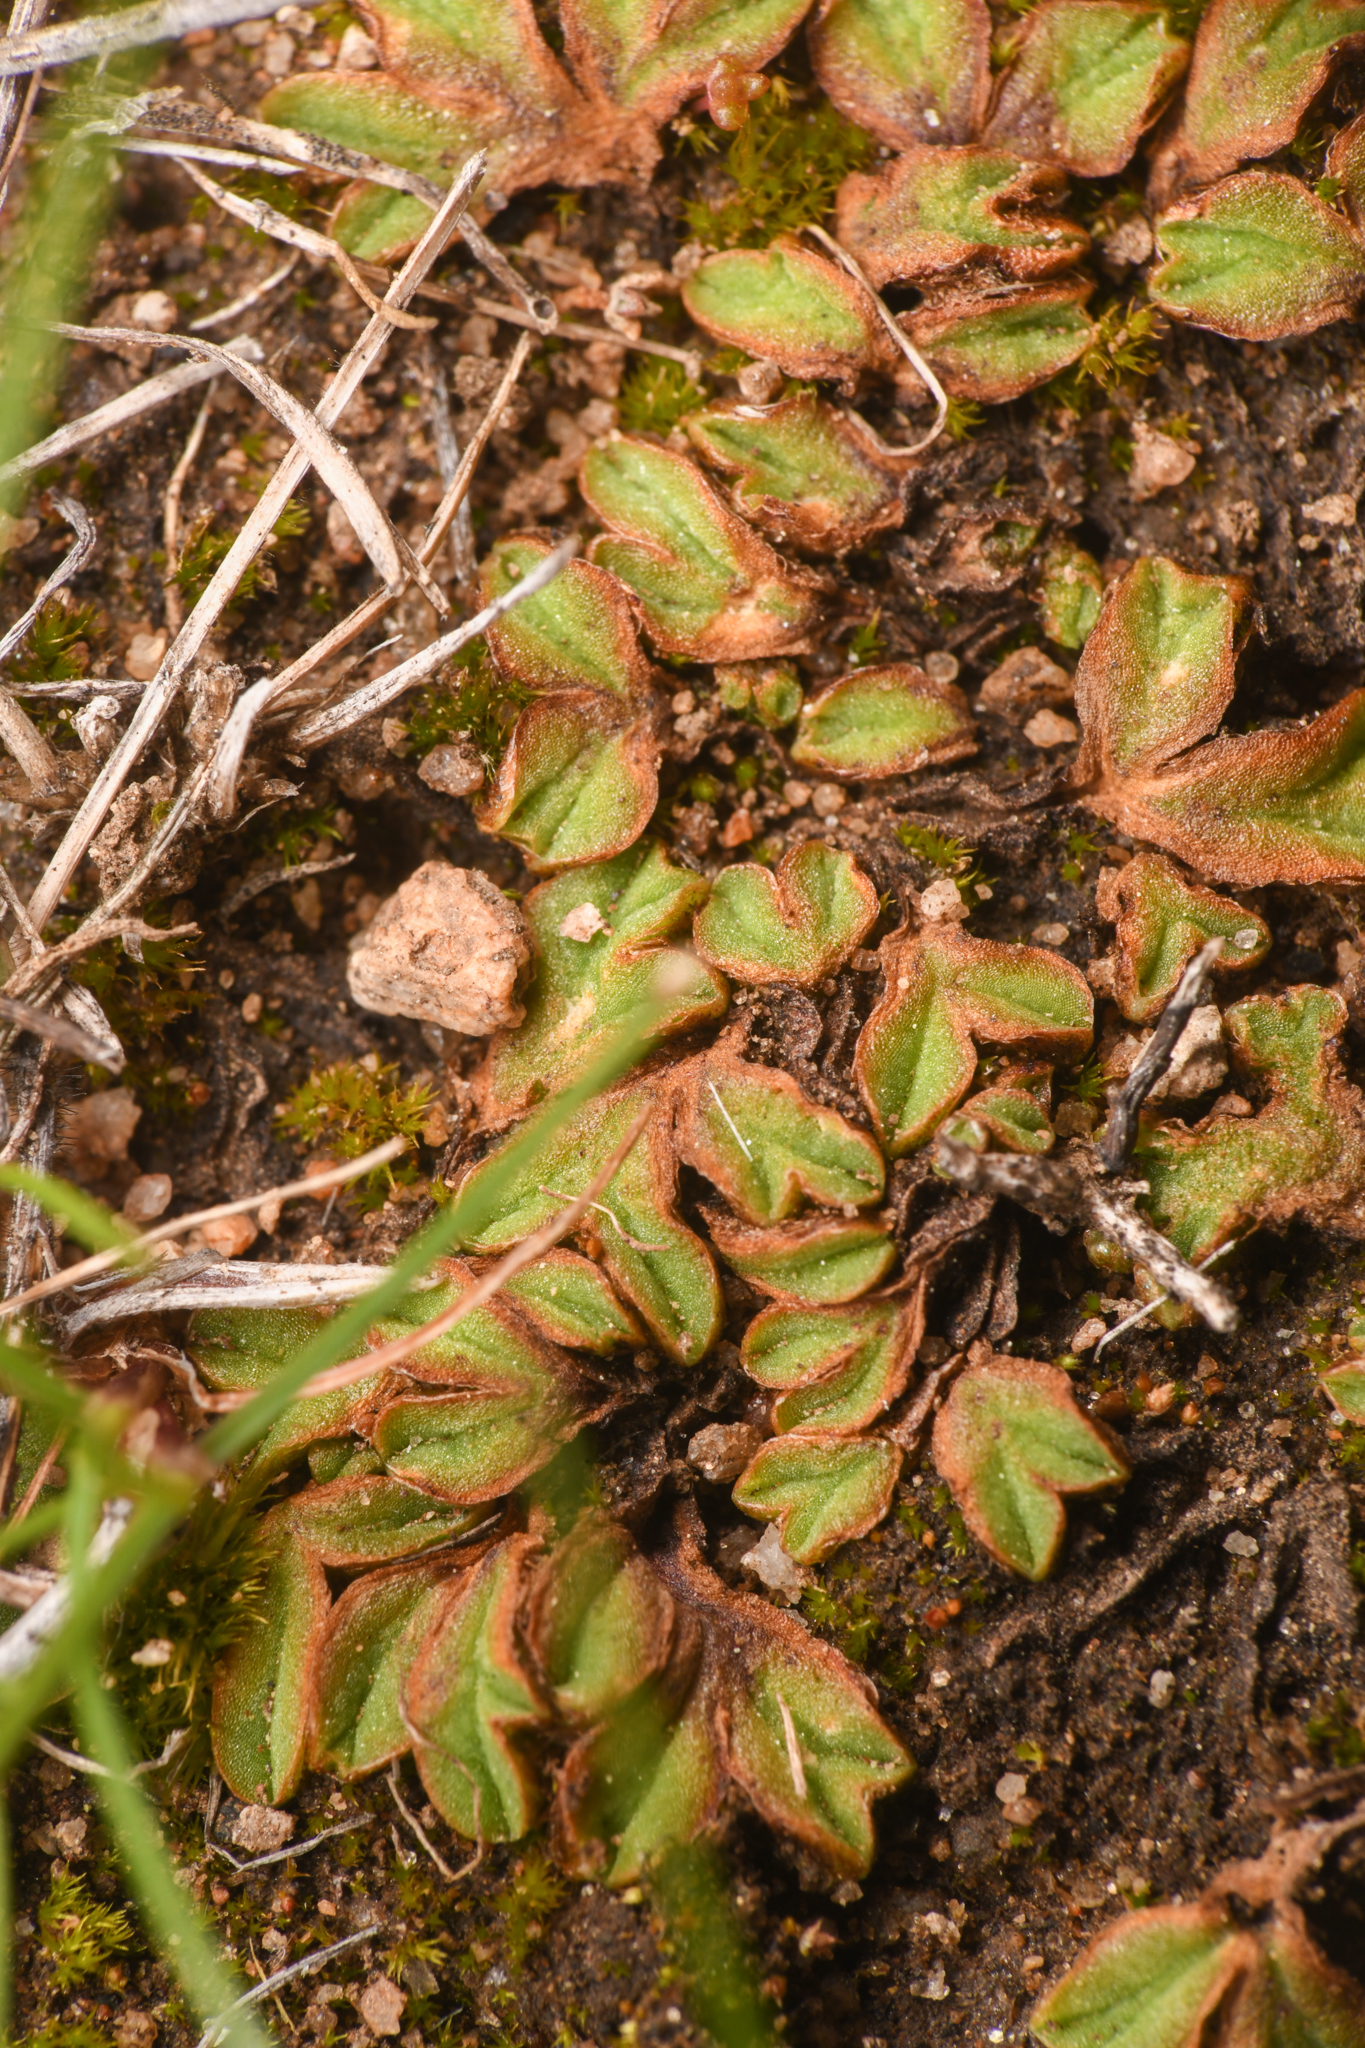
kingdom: Plantae
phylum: Marchantiophyta
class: Marchantiopsida
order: Marchantiales
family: Ricciaceae
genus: Riccia
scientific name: Riccia campbelliana
